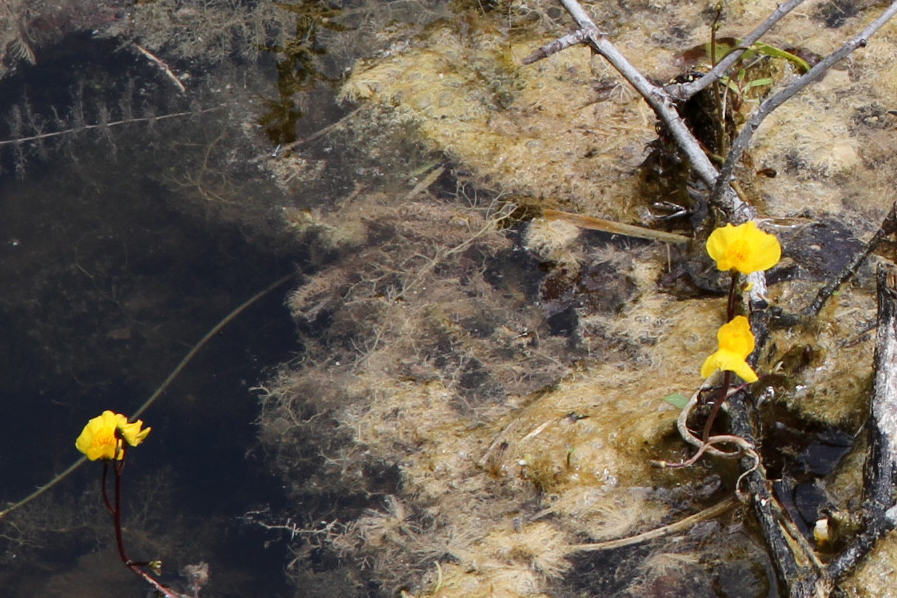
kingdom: Plantae
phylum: Tracheophyta
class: Magnoliopsida
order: Lamiales
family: Lentibulariaceae
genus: Utricularia
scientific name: Utricularia macrorhiza
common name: Common bladderwort
